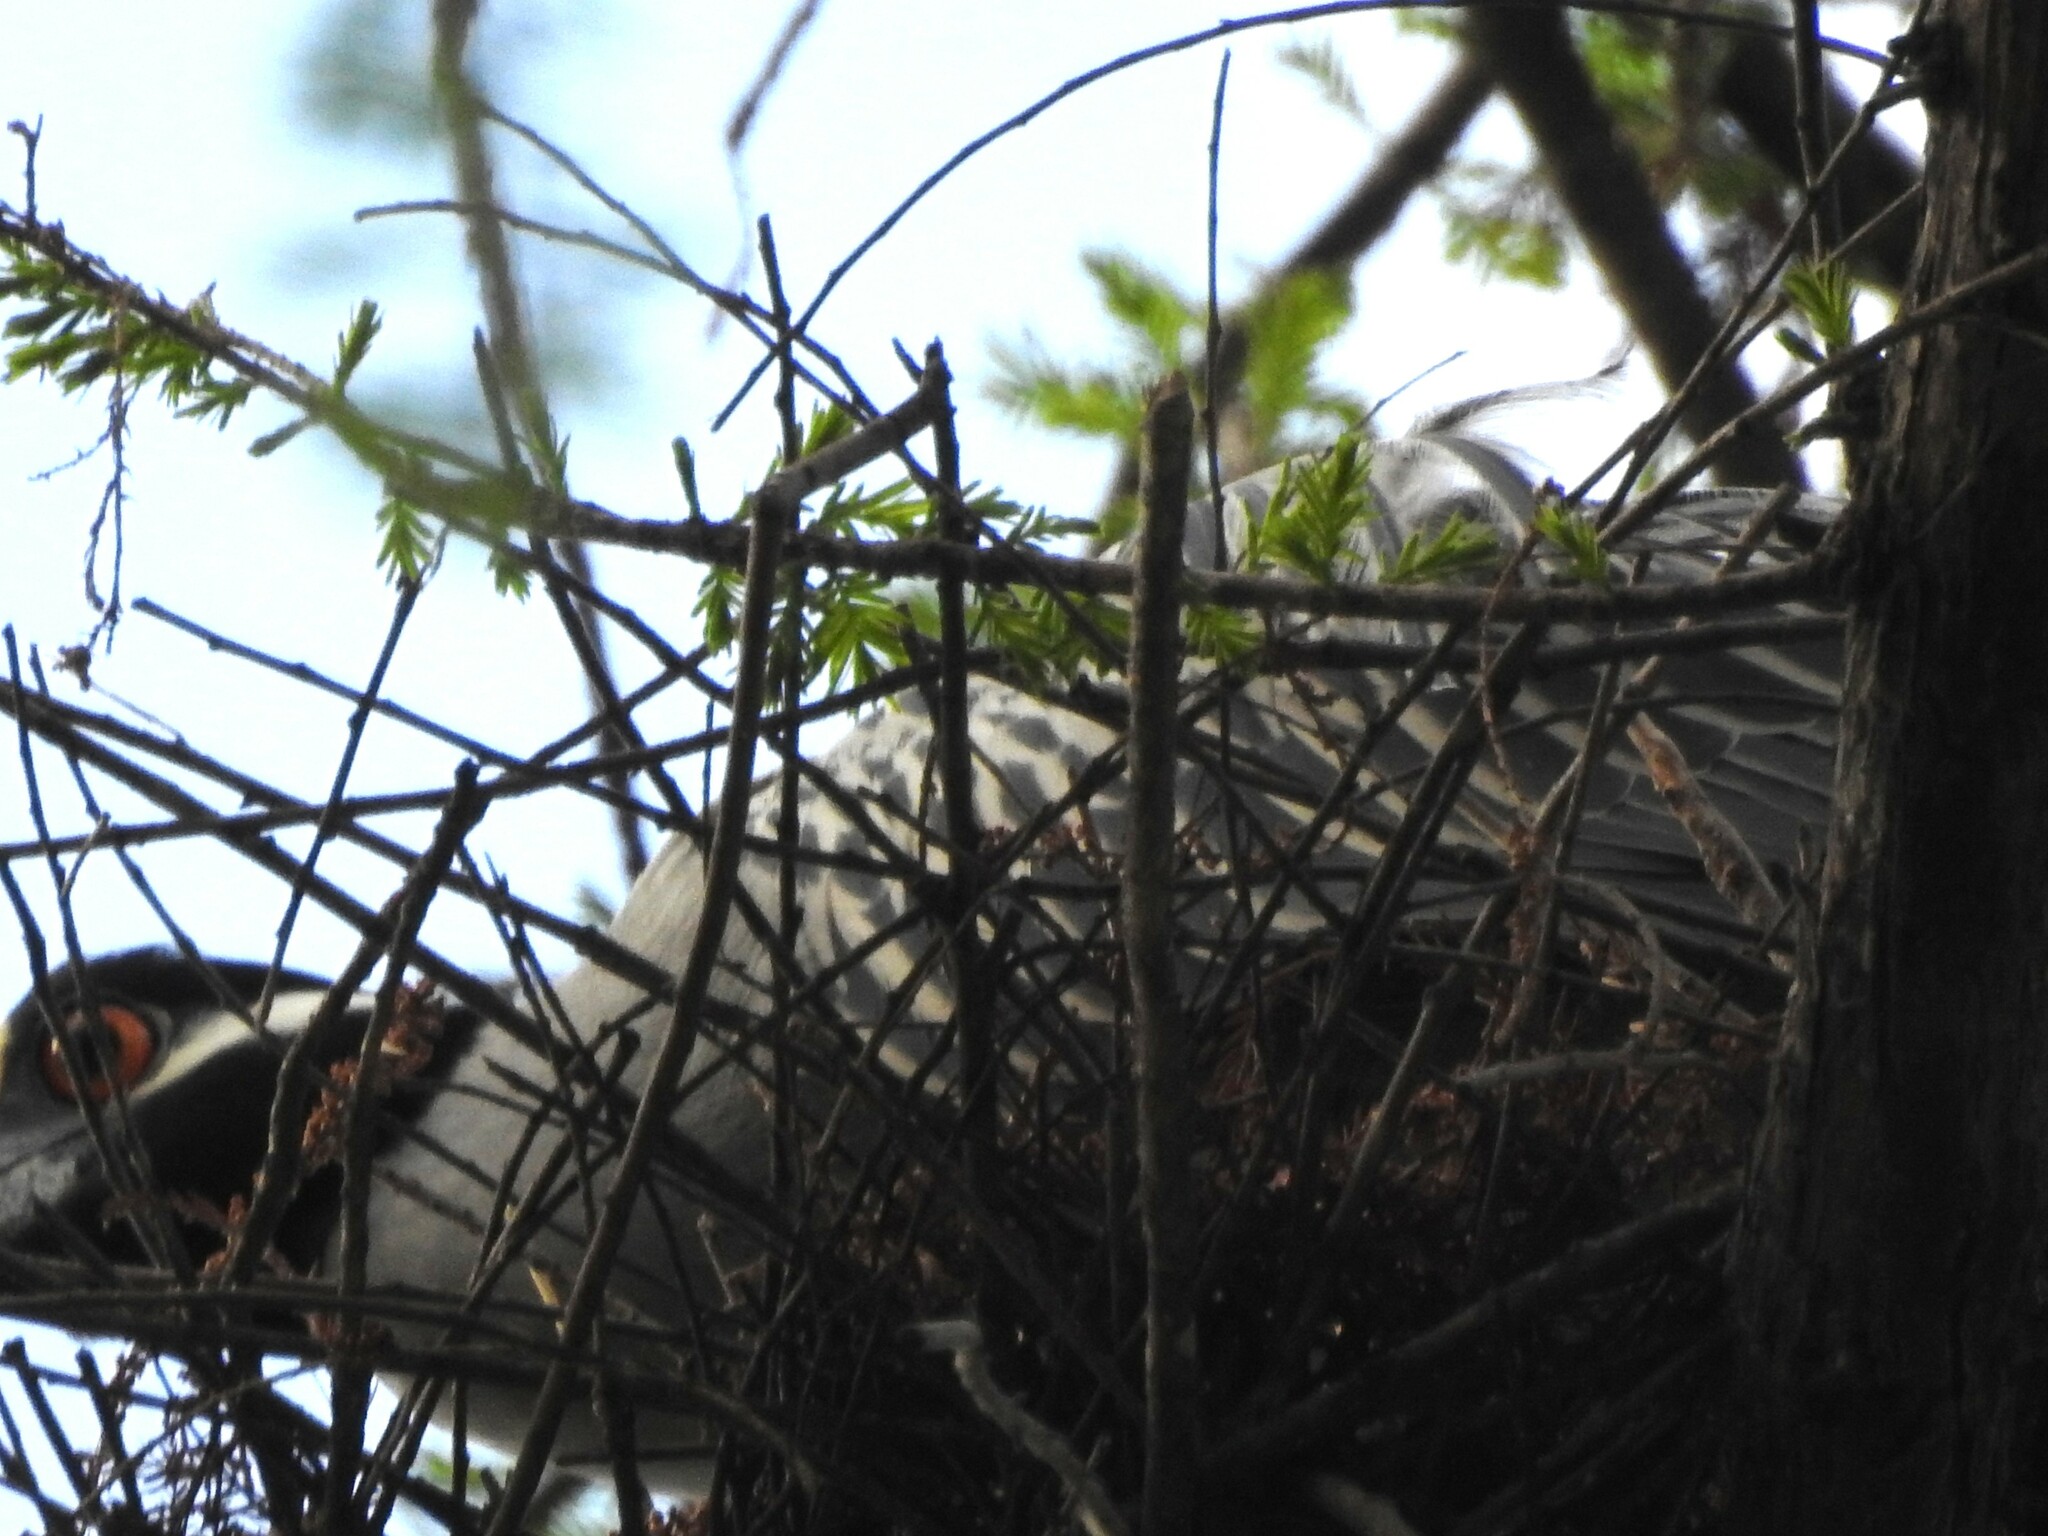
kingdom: Animalia
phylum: Chordata
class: Aves
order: Pelecaniformes
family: Ardeidae
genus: Nyctanassa
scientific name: Nyctanassa violacea
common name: Yellow-crowned night heron
